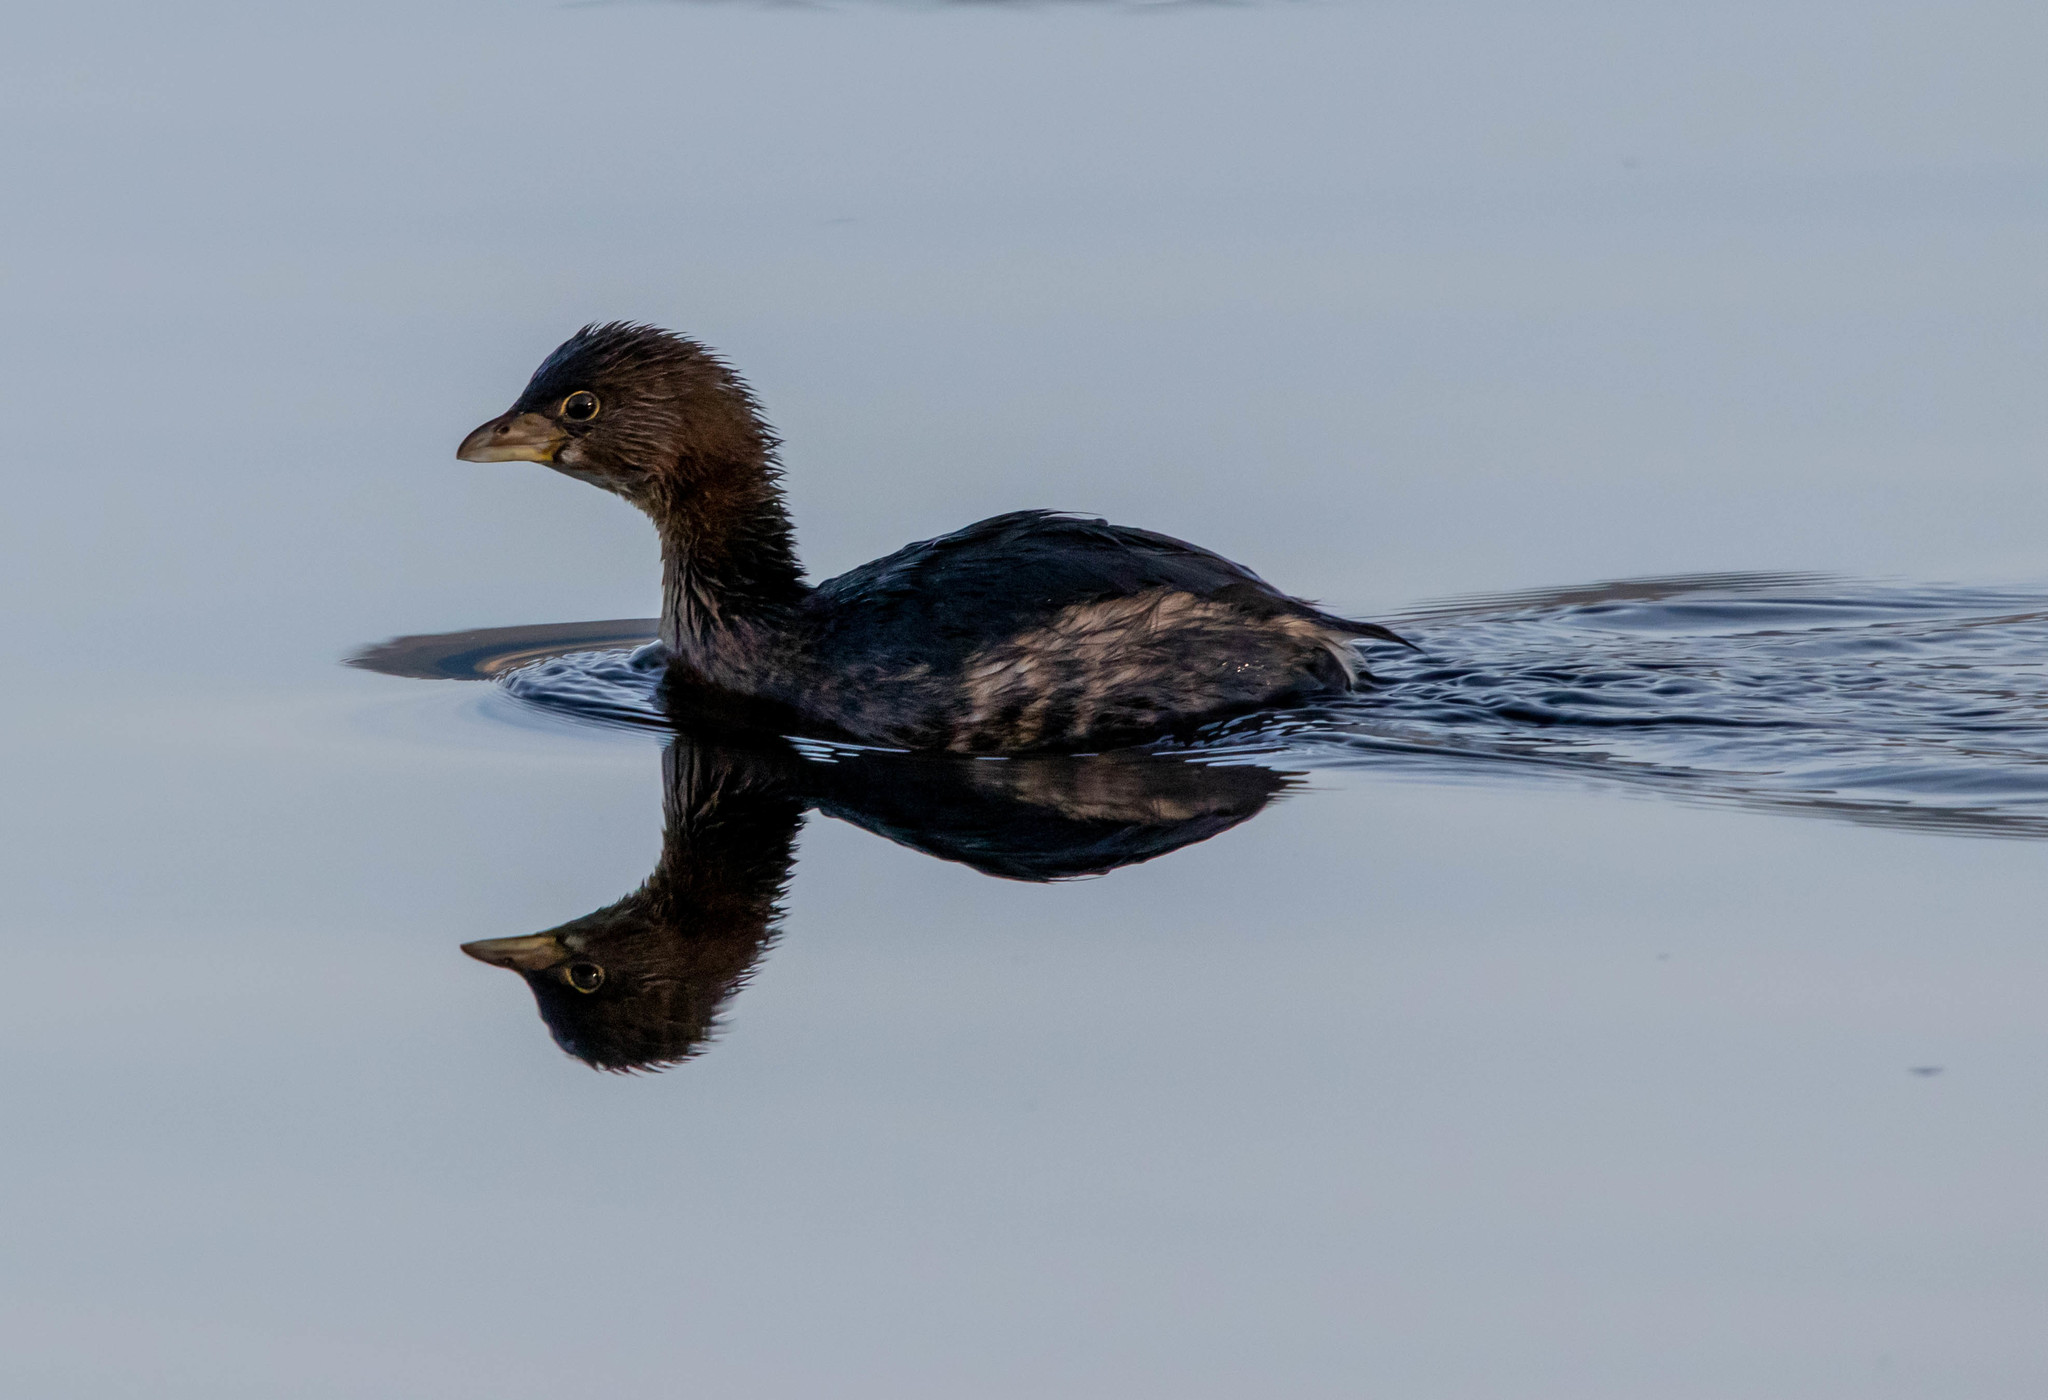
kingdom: Animalia
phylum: Chordata
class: Aves
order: Podicipediformes
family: Podicipedidae
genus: Podilymbus
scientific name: Podilymbus podiceps
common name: Pied-billed grebe
